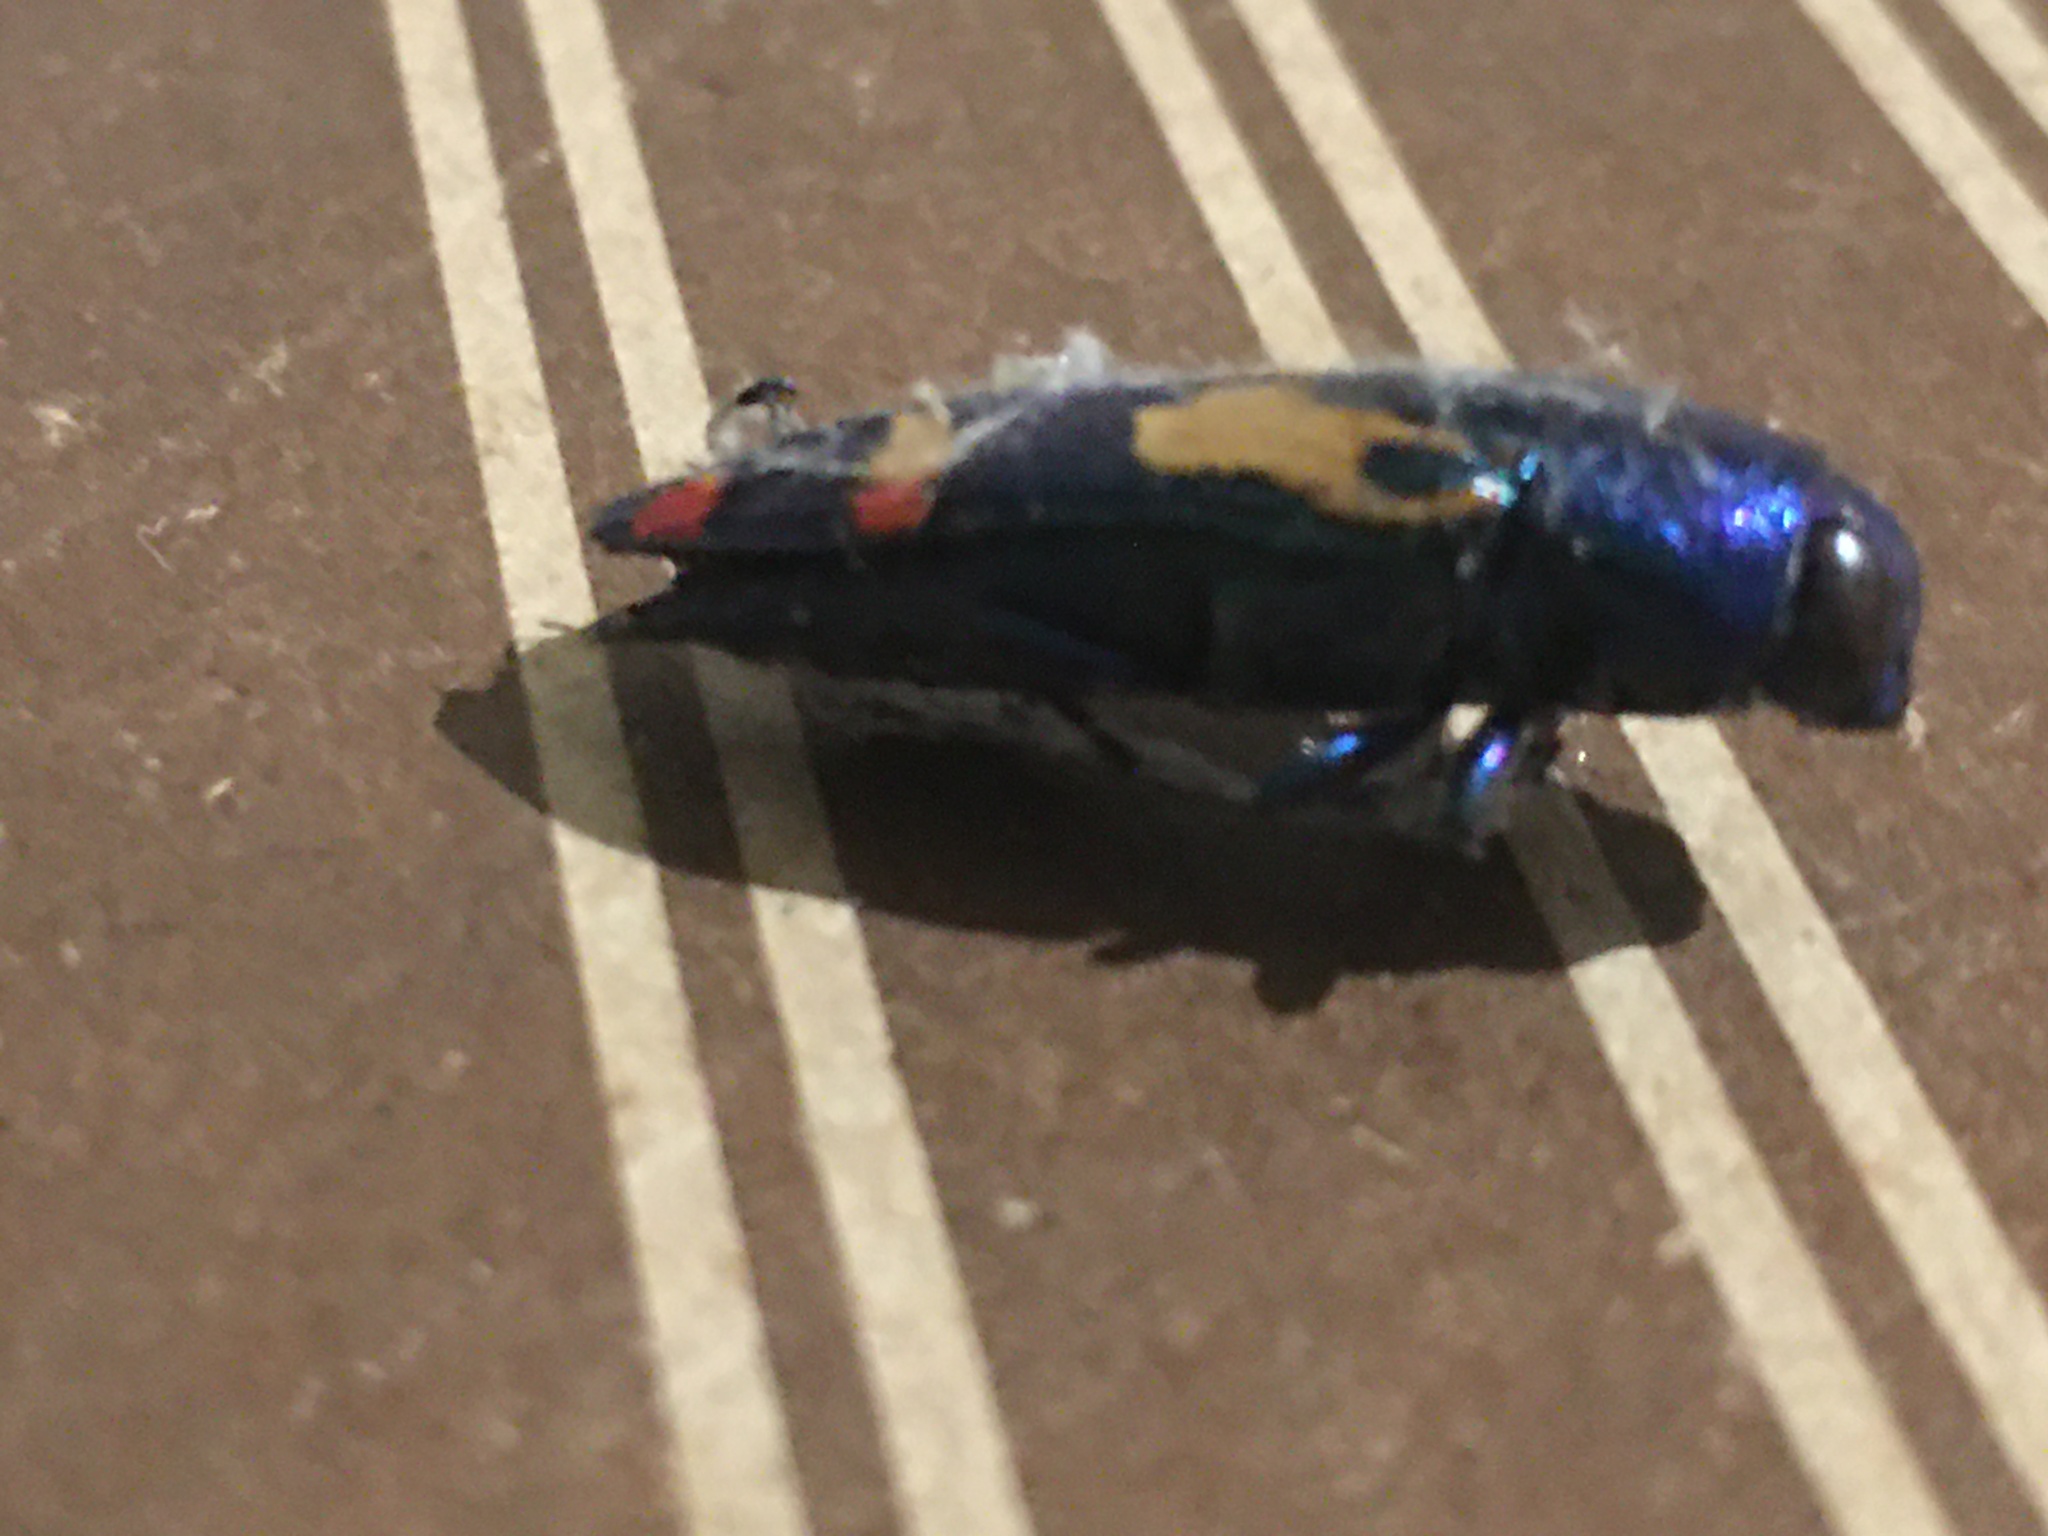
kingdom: Animalia
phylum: Arthropoda
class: Insecta
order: Coleoptera
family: Buprestidae
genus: Buprestis
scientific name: Buprestis gibbsii
